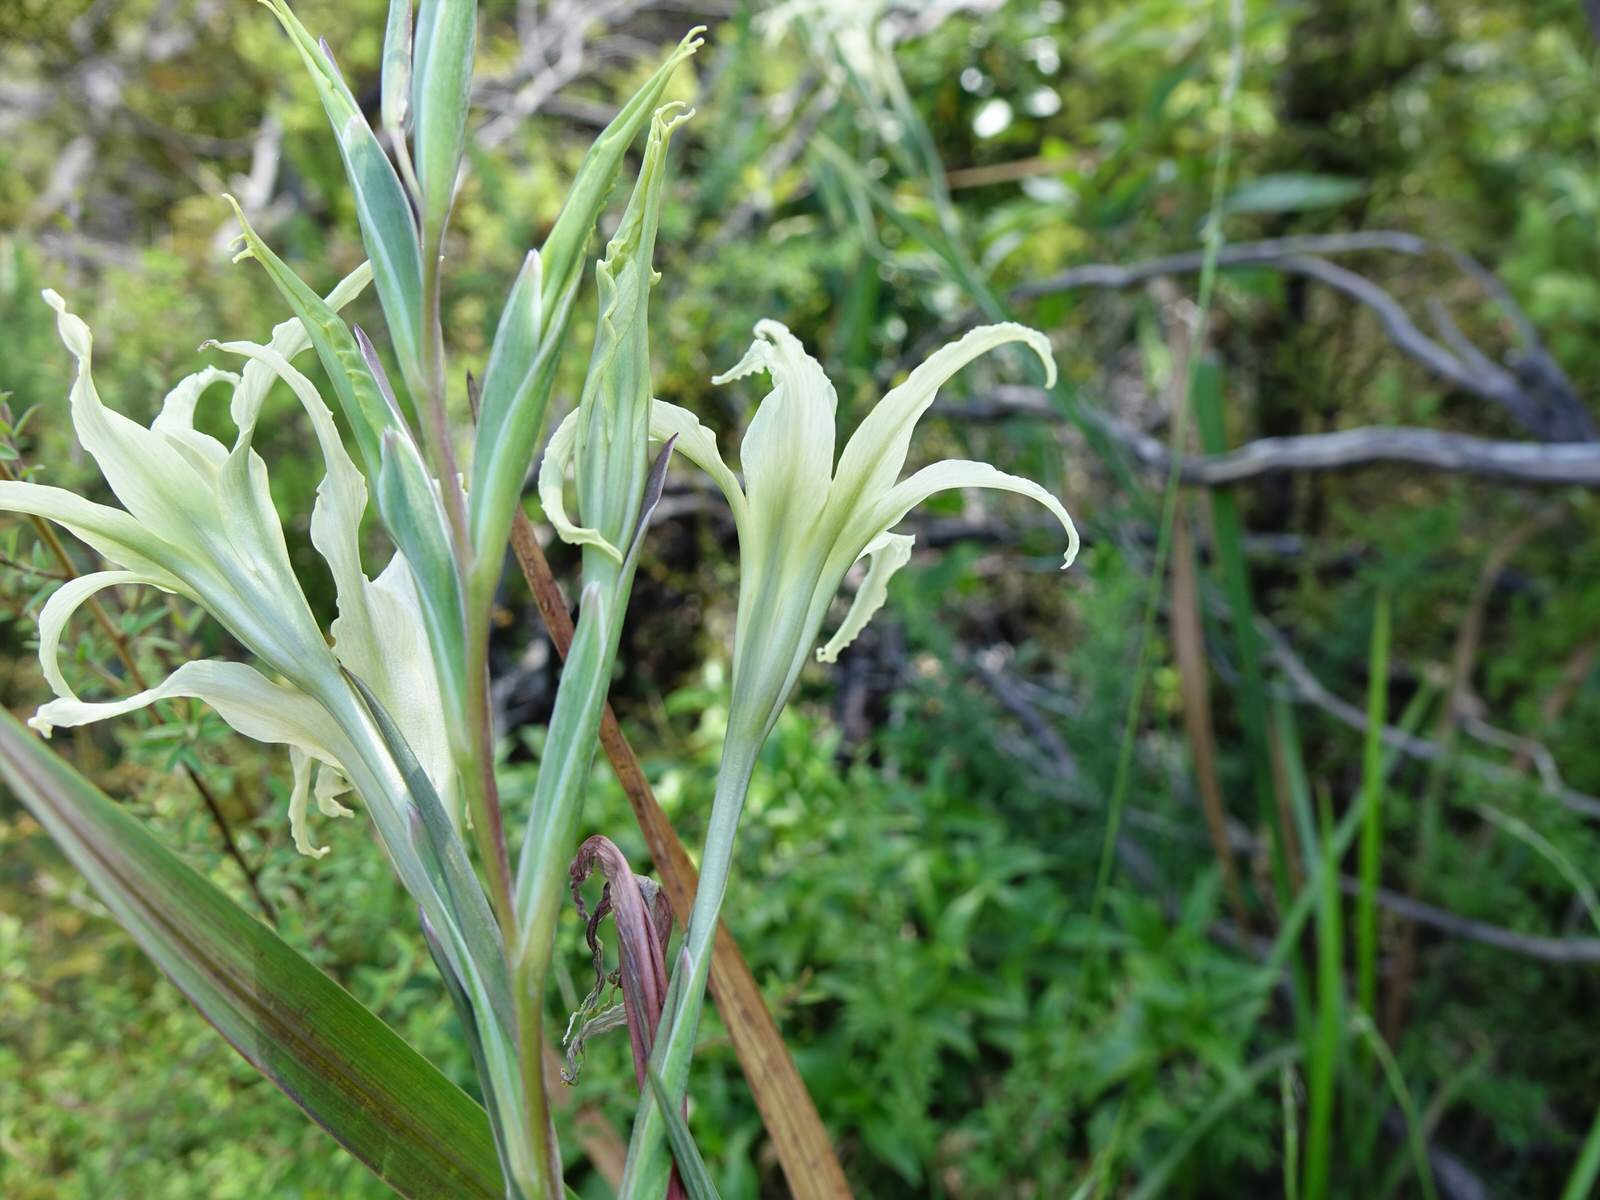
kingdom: Plantae
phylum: Tracheophyta
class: Liliopsida
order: Asparagales
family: Iridaceae
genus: Gladiolus
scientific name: Gladiolus undulatus
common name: Large painted-lady
